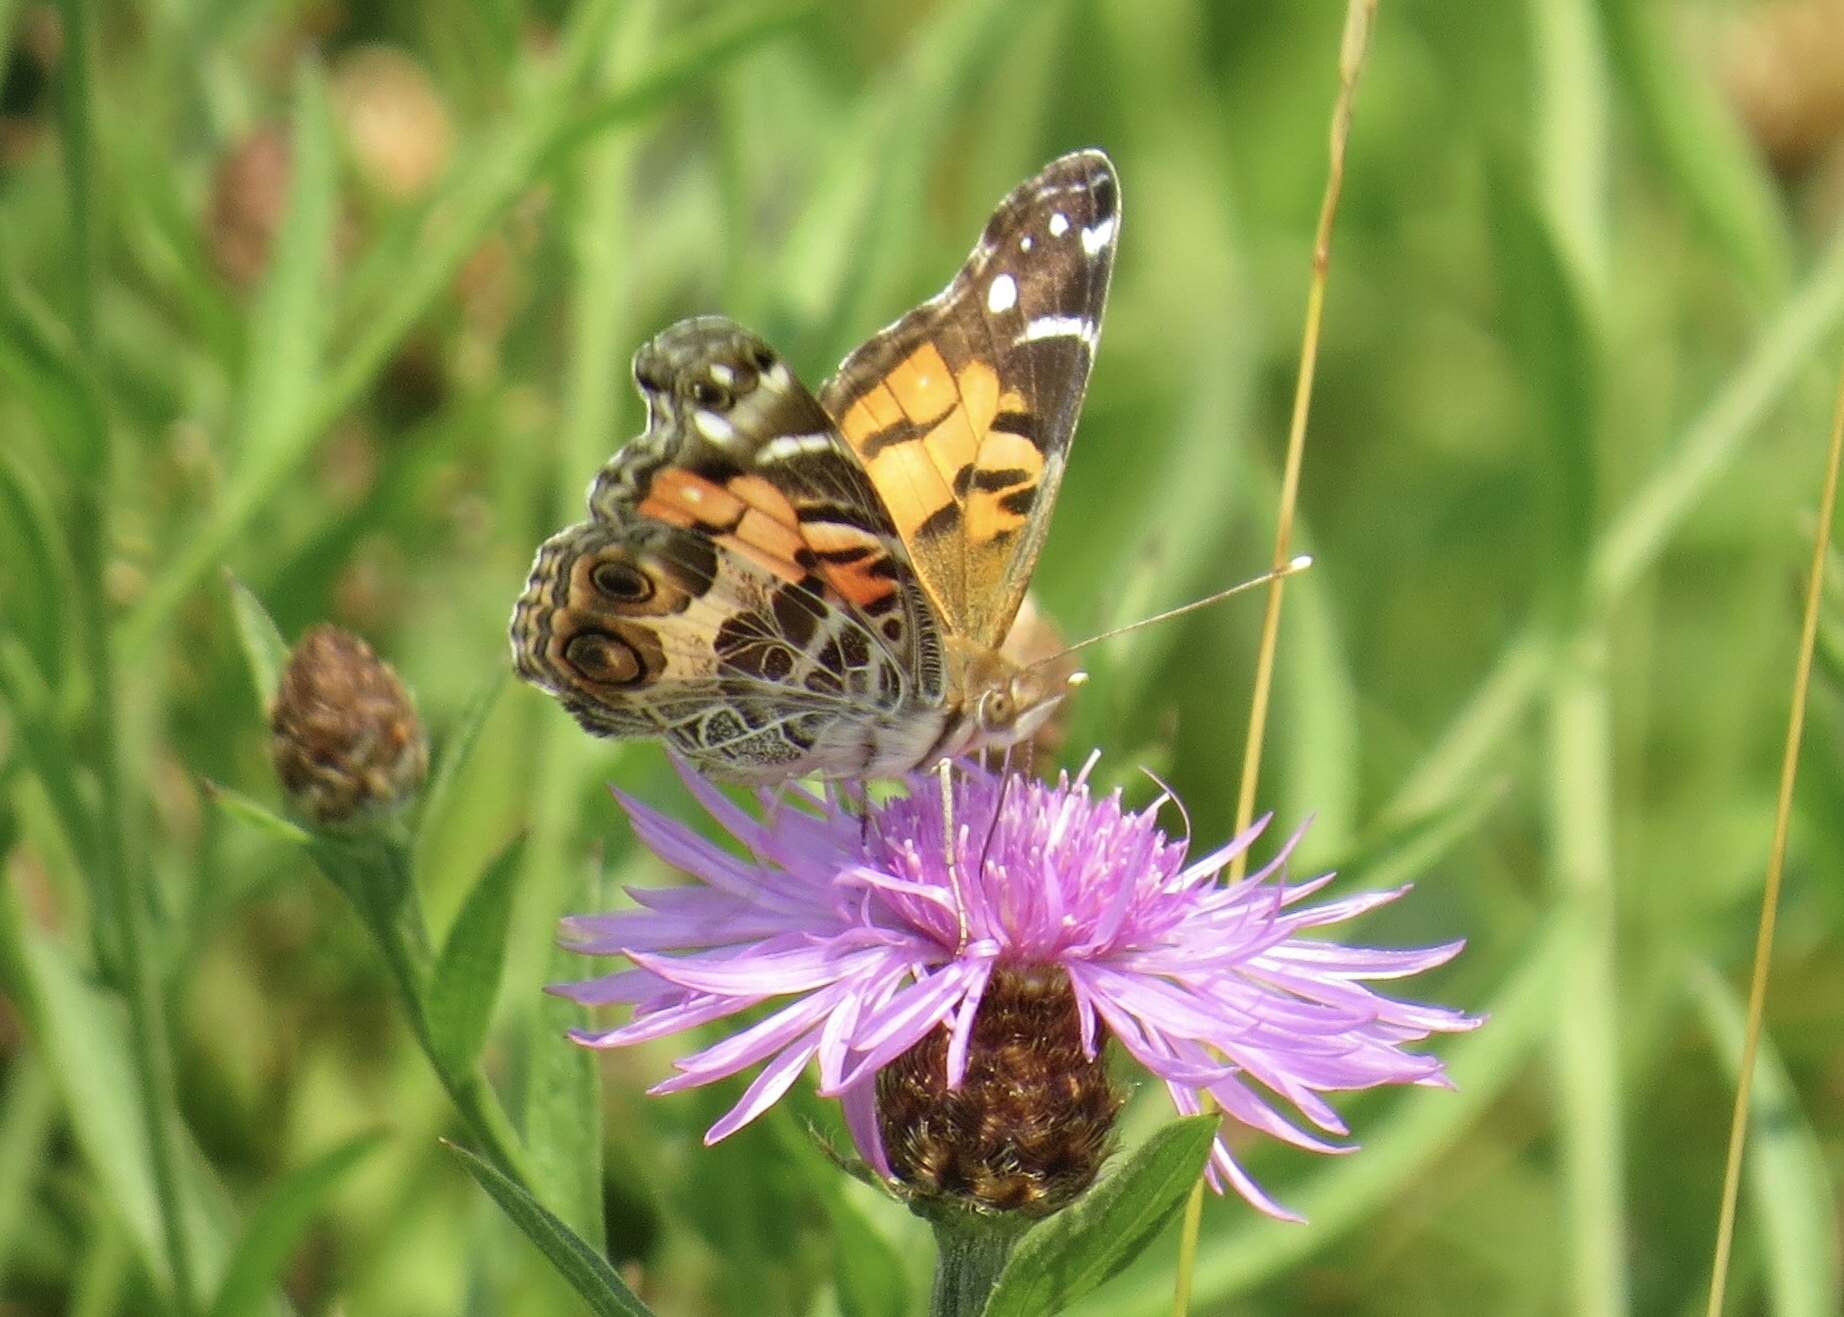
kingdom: Animalia
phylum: Arthropoda
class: Insecta
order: Lepidoptera
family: Nymphalidae
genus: Vanessa
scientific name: Vanessa virginiensis
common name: American lady
